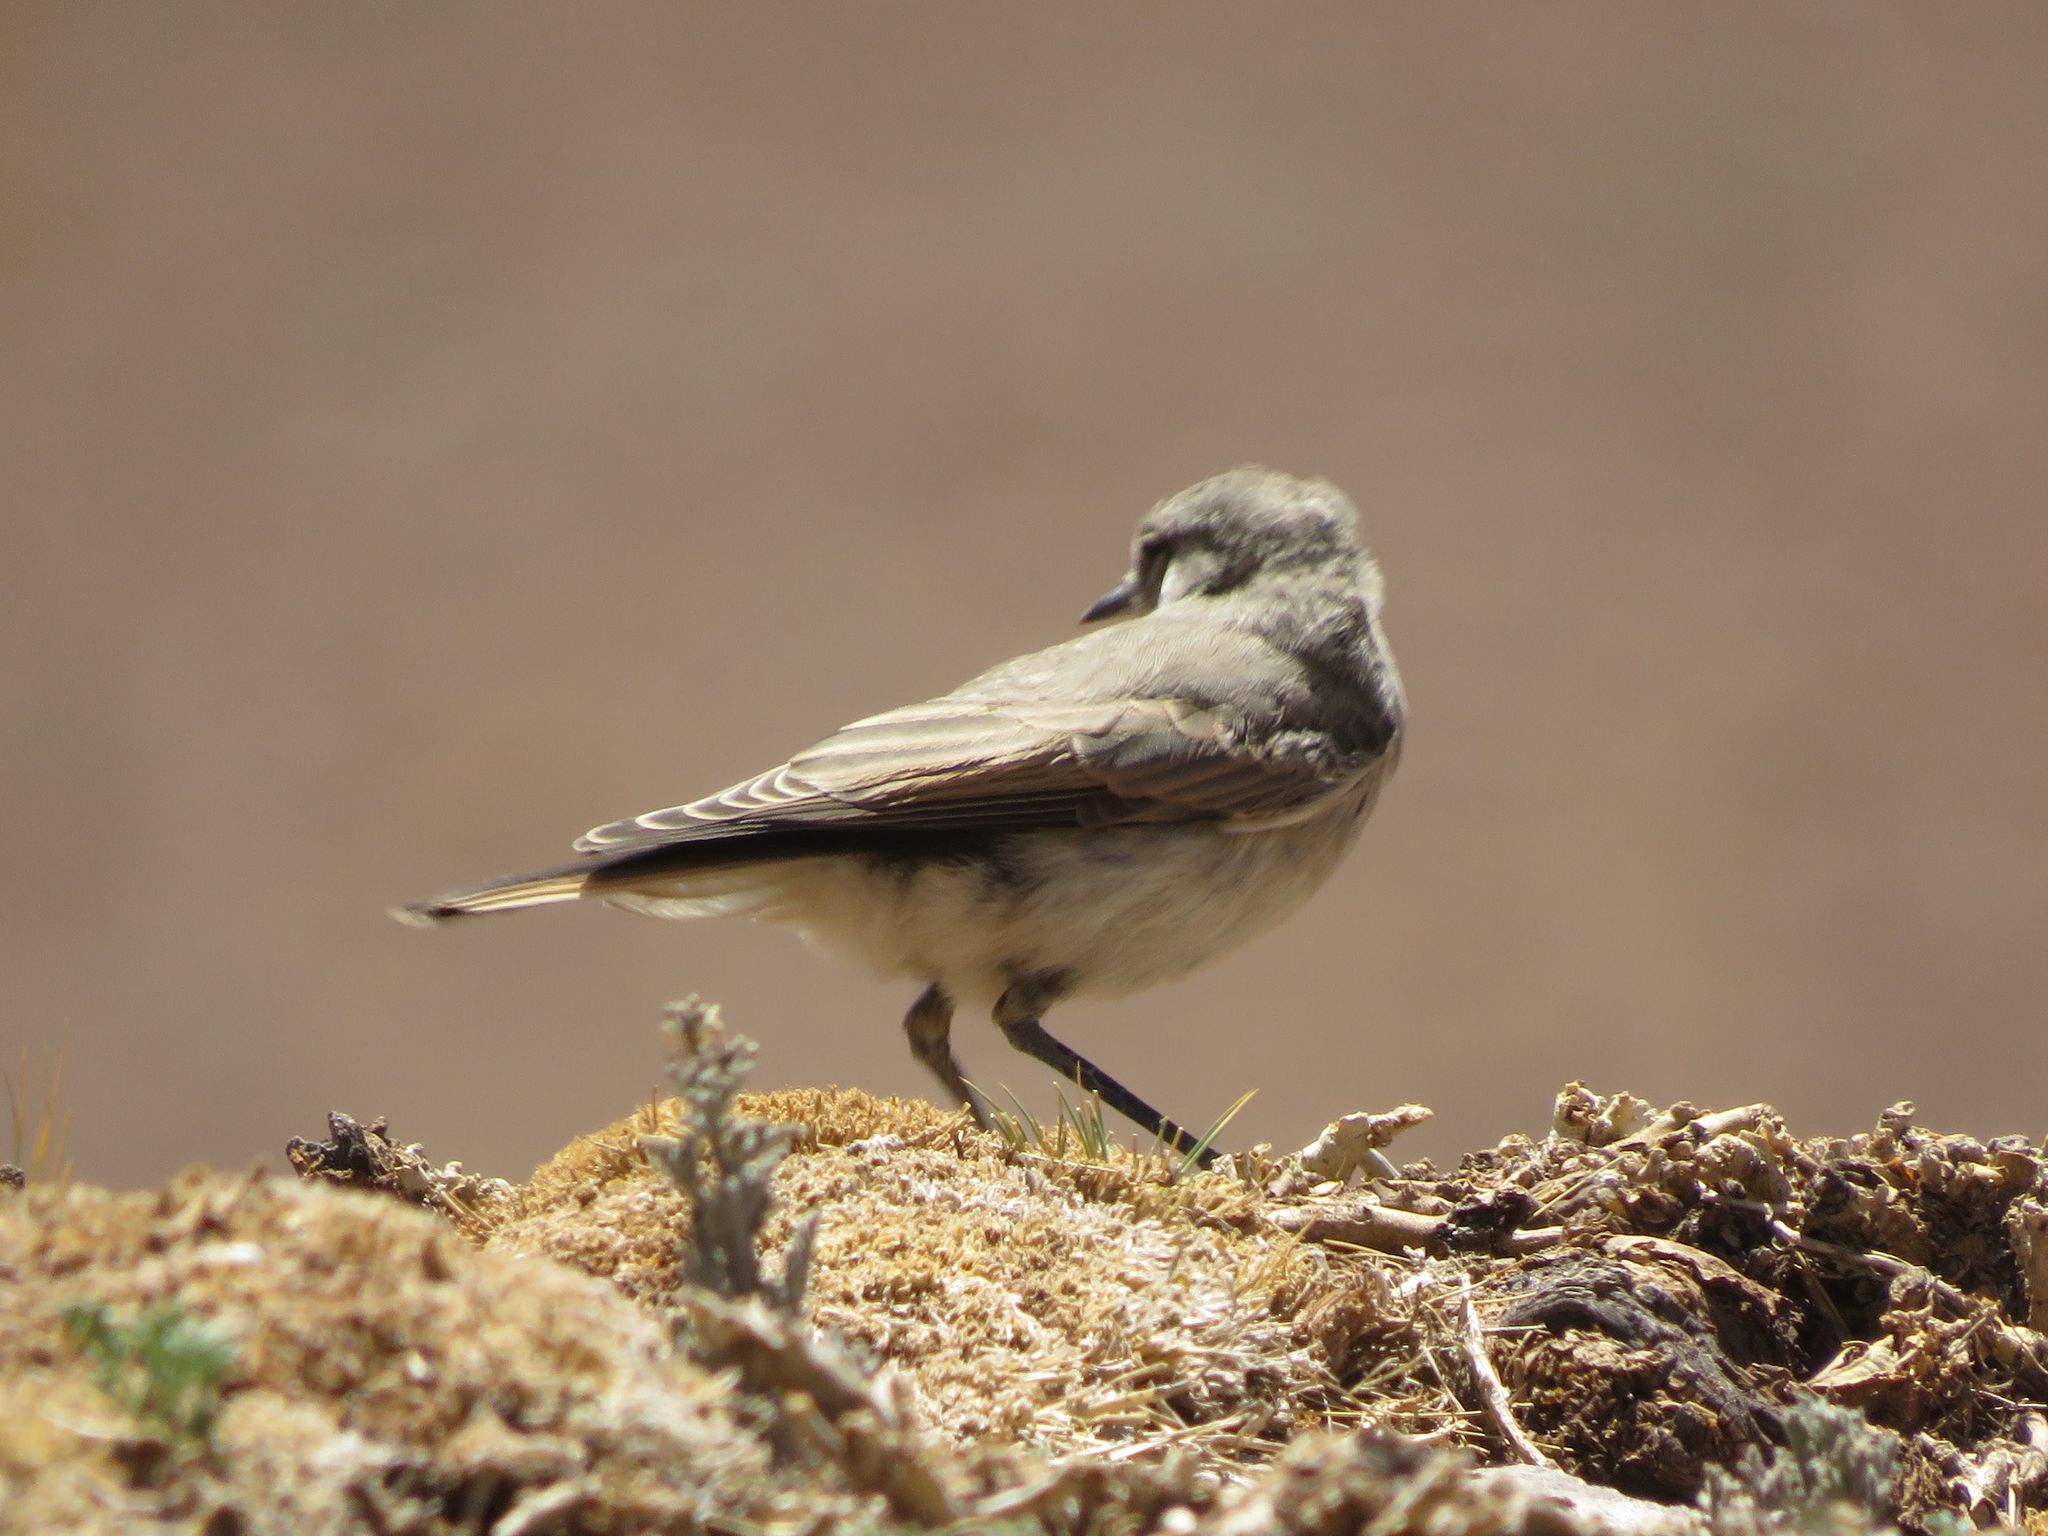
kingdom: Animalia
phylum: Chordata
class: Aves
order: Passeriformes
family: Tyrannidae
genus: Muscisaxicola
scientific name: Muscisaxicola frontalis
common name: Black-fronted ground tyrant
